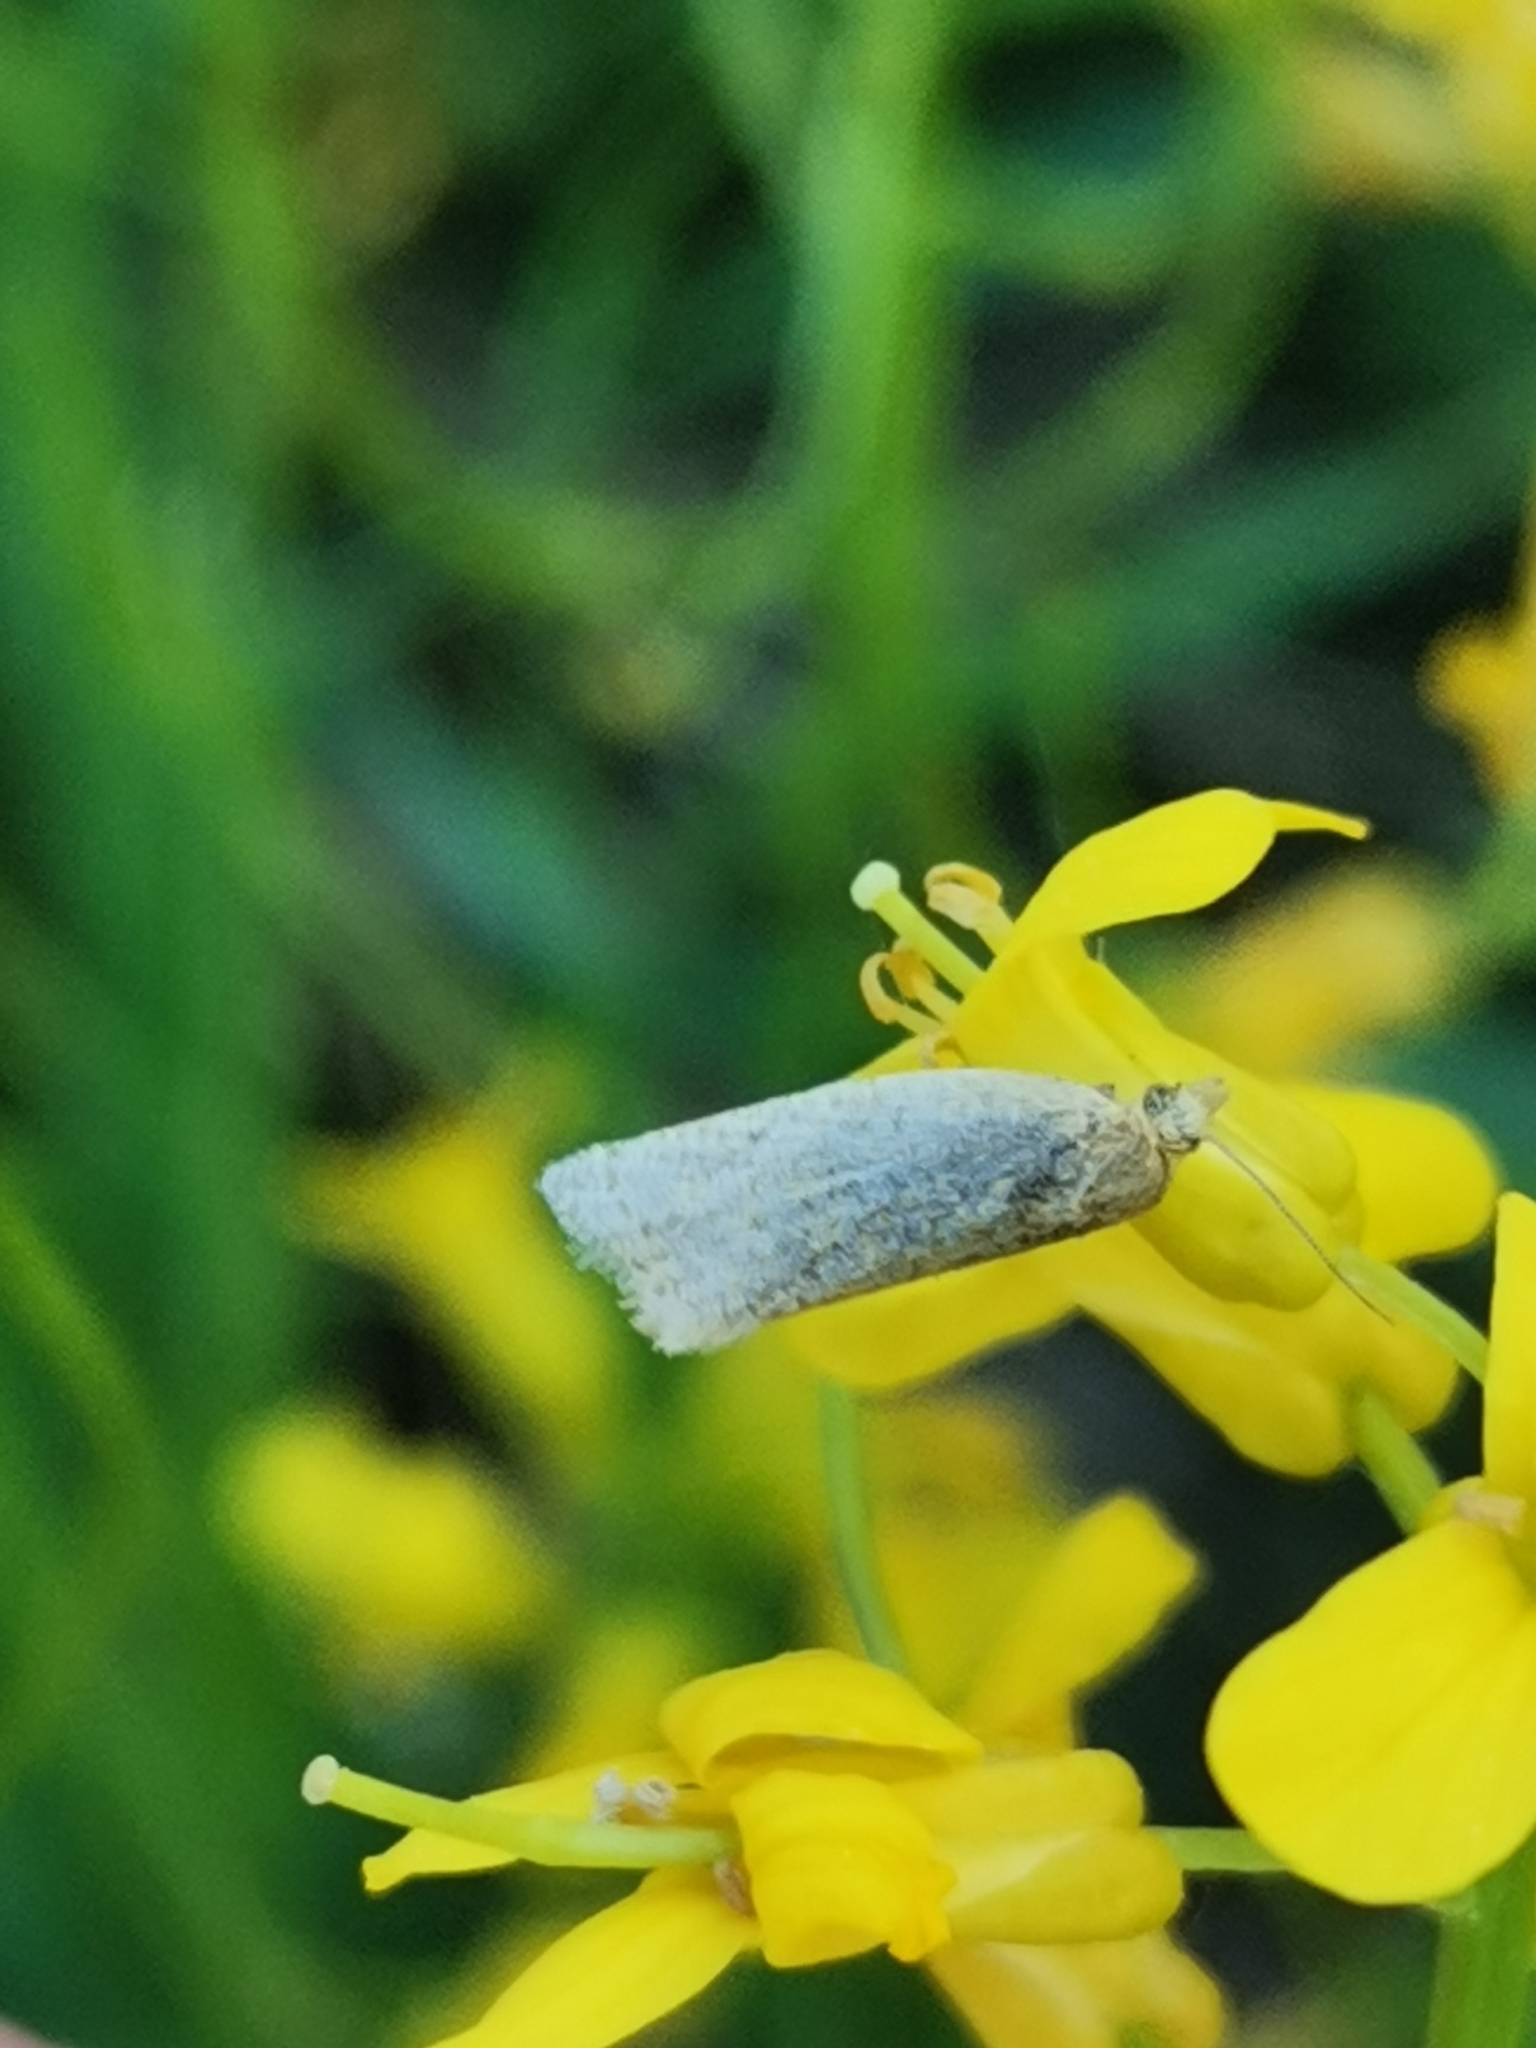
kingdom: Animalia
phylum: Arthropoda
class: Insecta
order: Lepidoptera
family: Tortricidae
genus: Clepsis
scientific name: Clepsis senecionana
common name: Obscure tortrix
